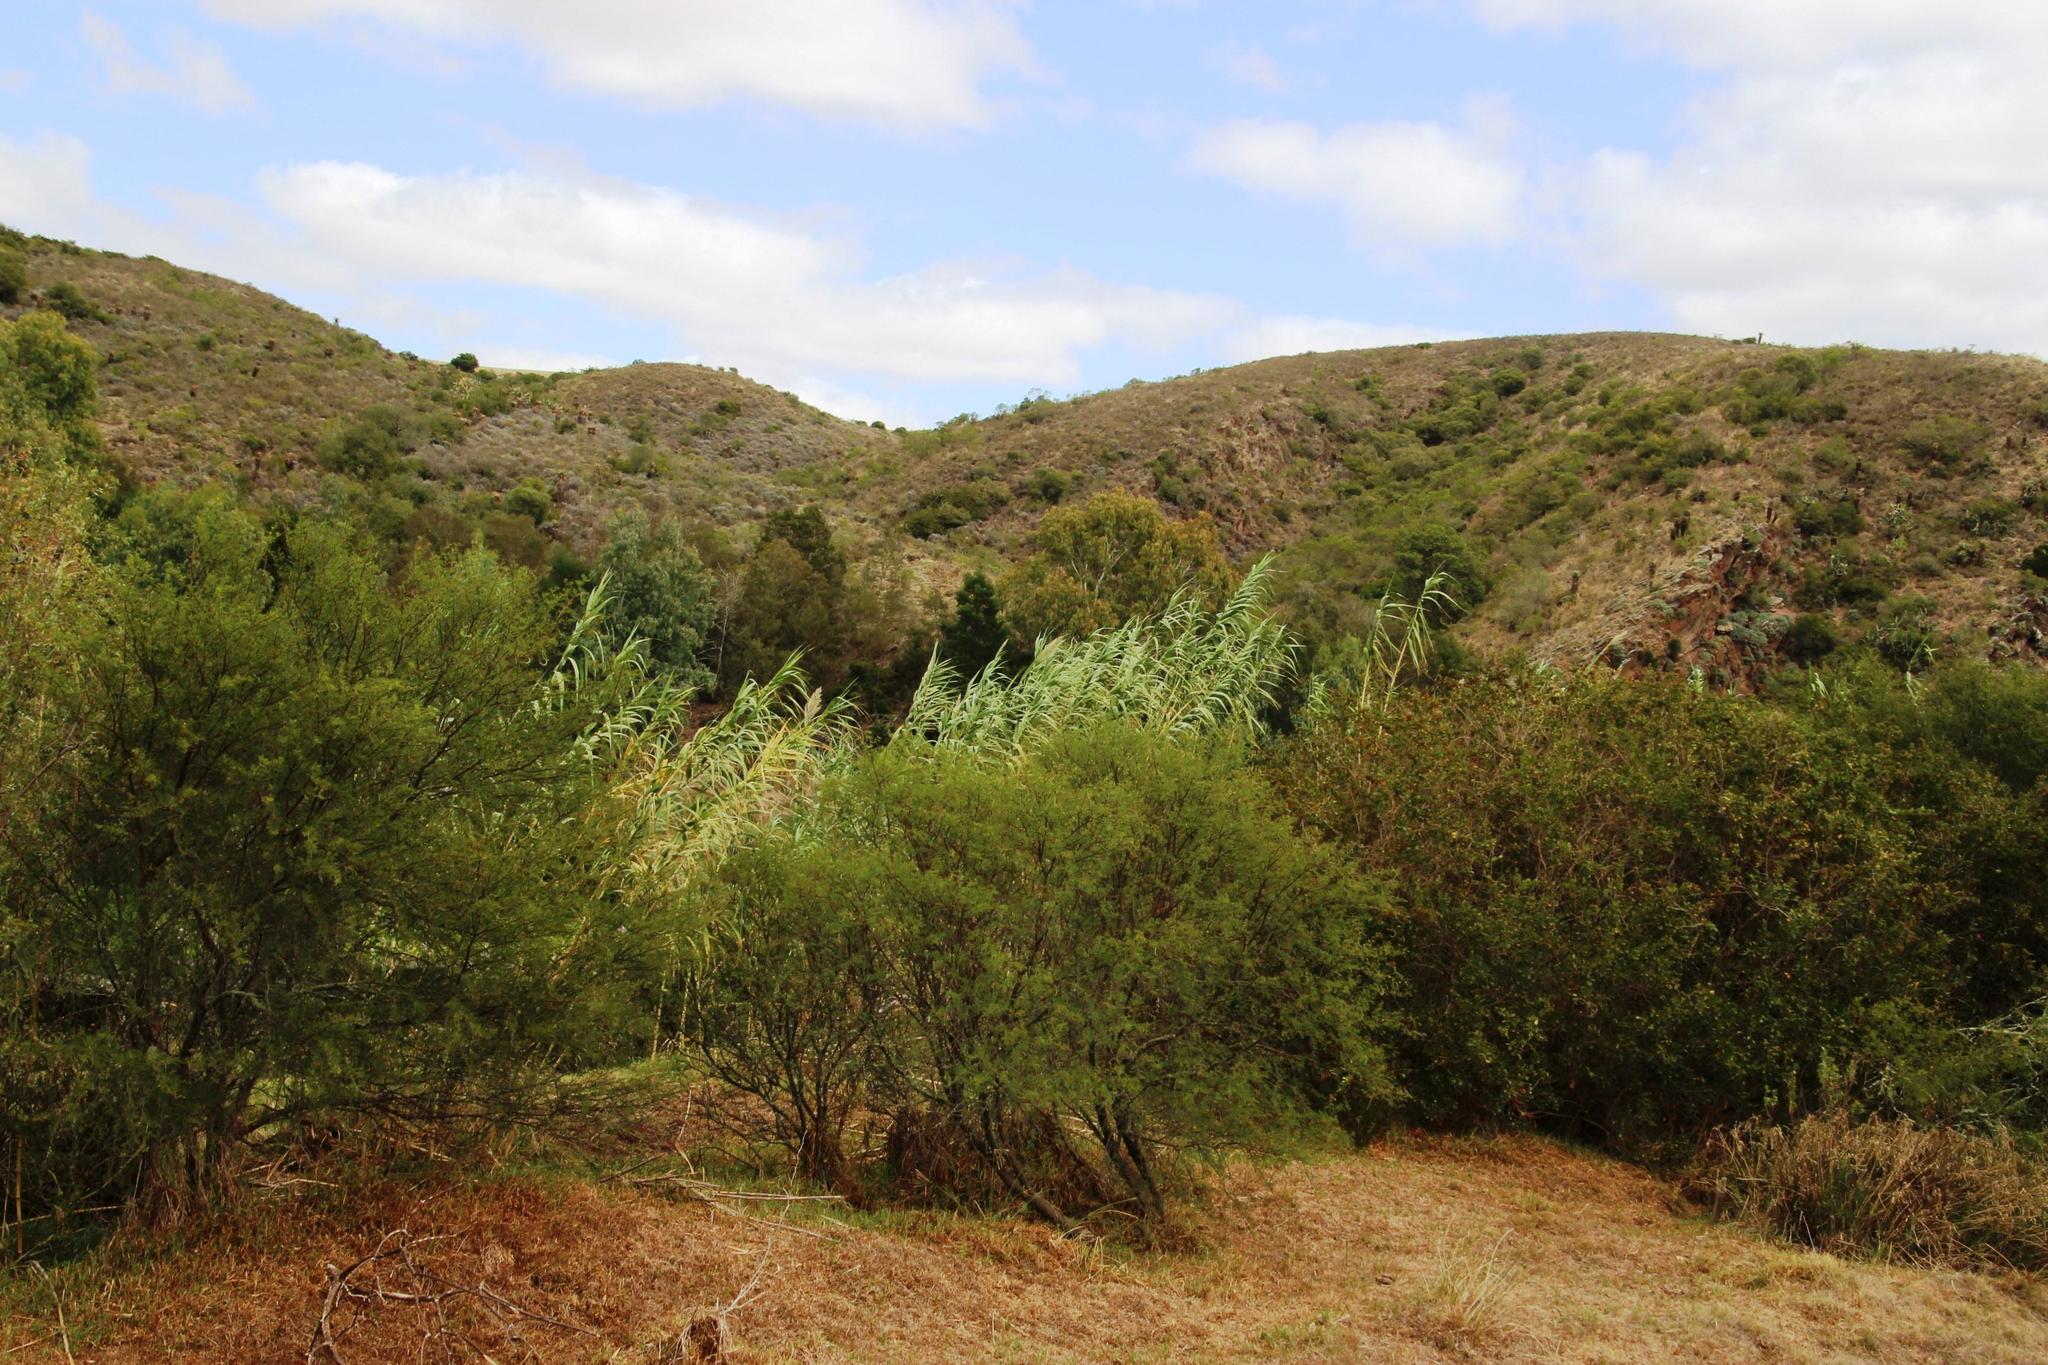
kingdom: Plantae
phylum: Tracheophyta
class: Magnoliopsida
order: Fabales
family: Fabaceae
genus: Vachellia
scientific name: Vachellia karroo
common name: Sweet thorn
